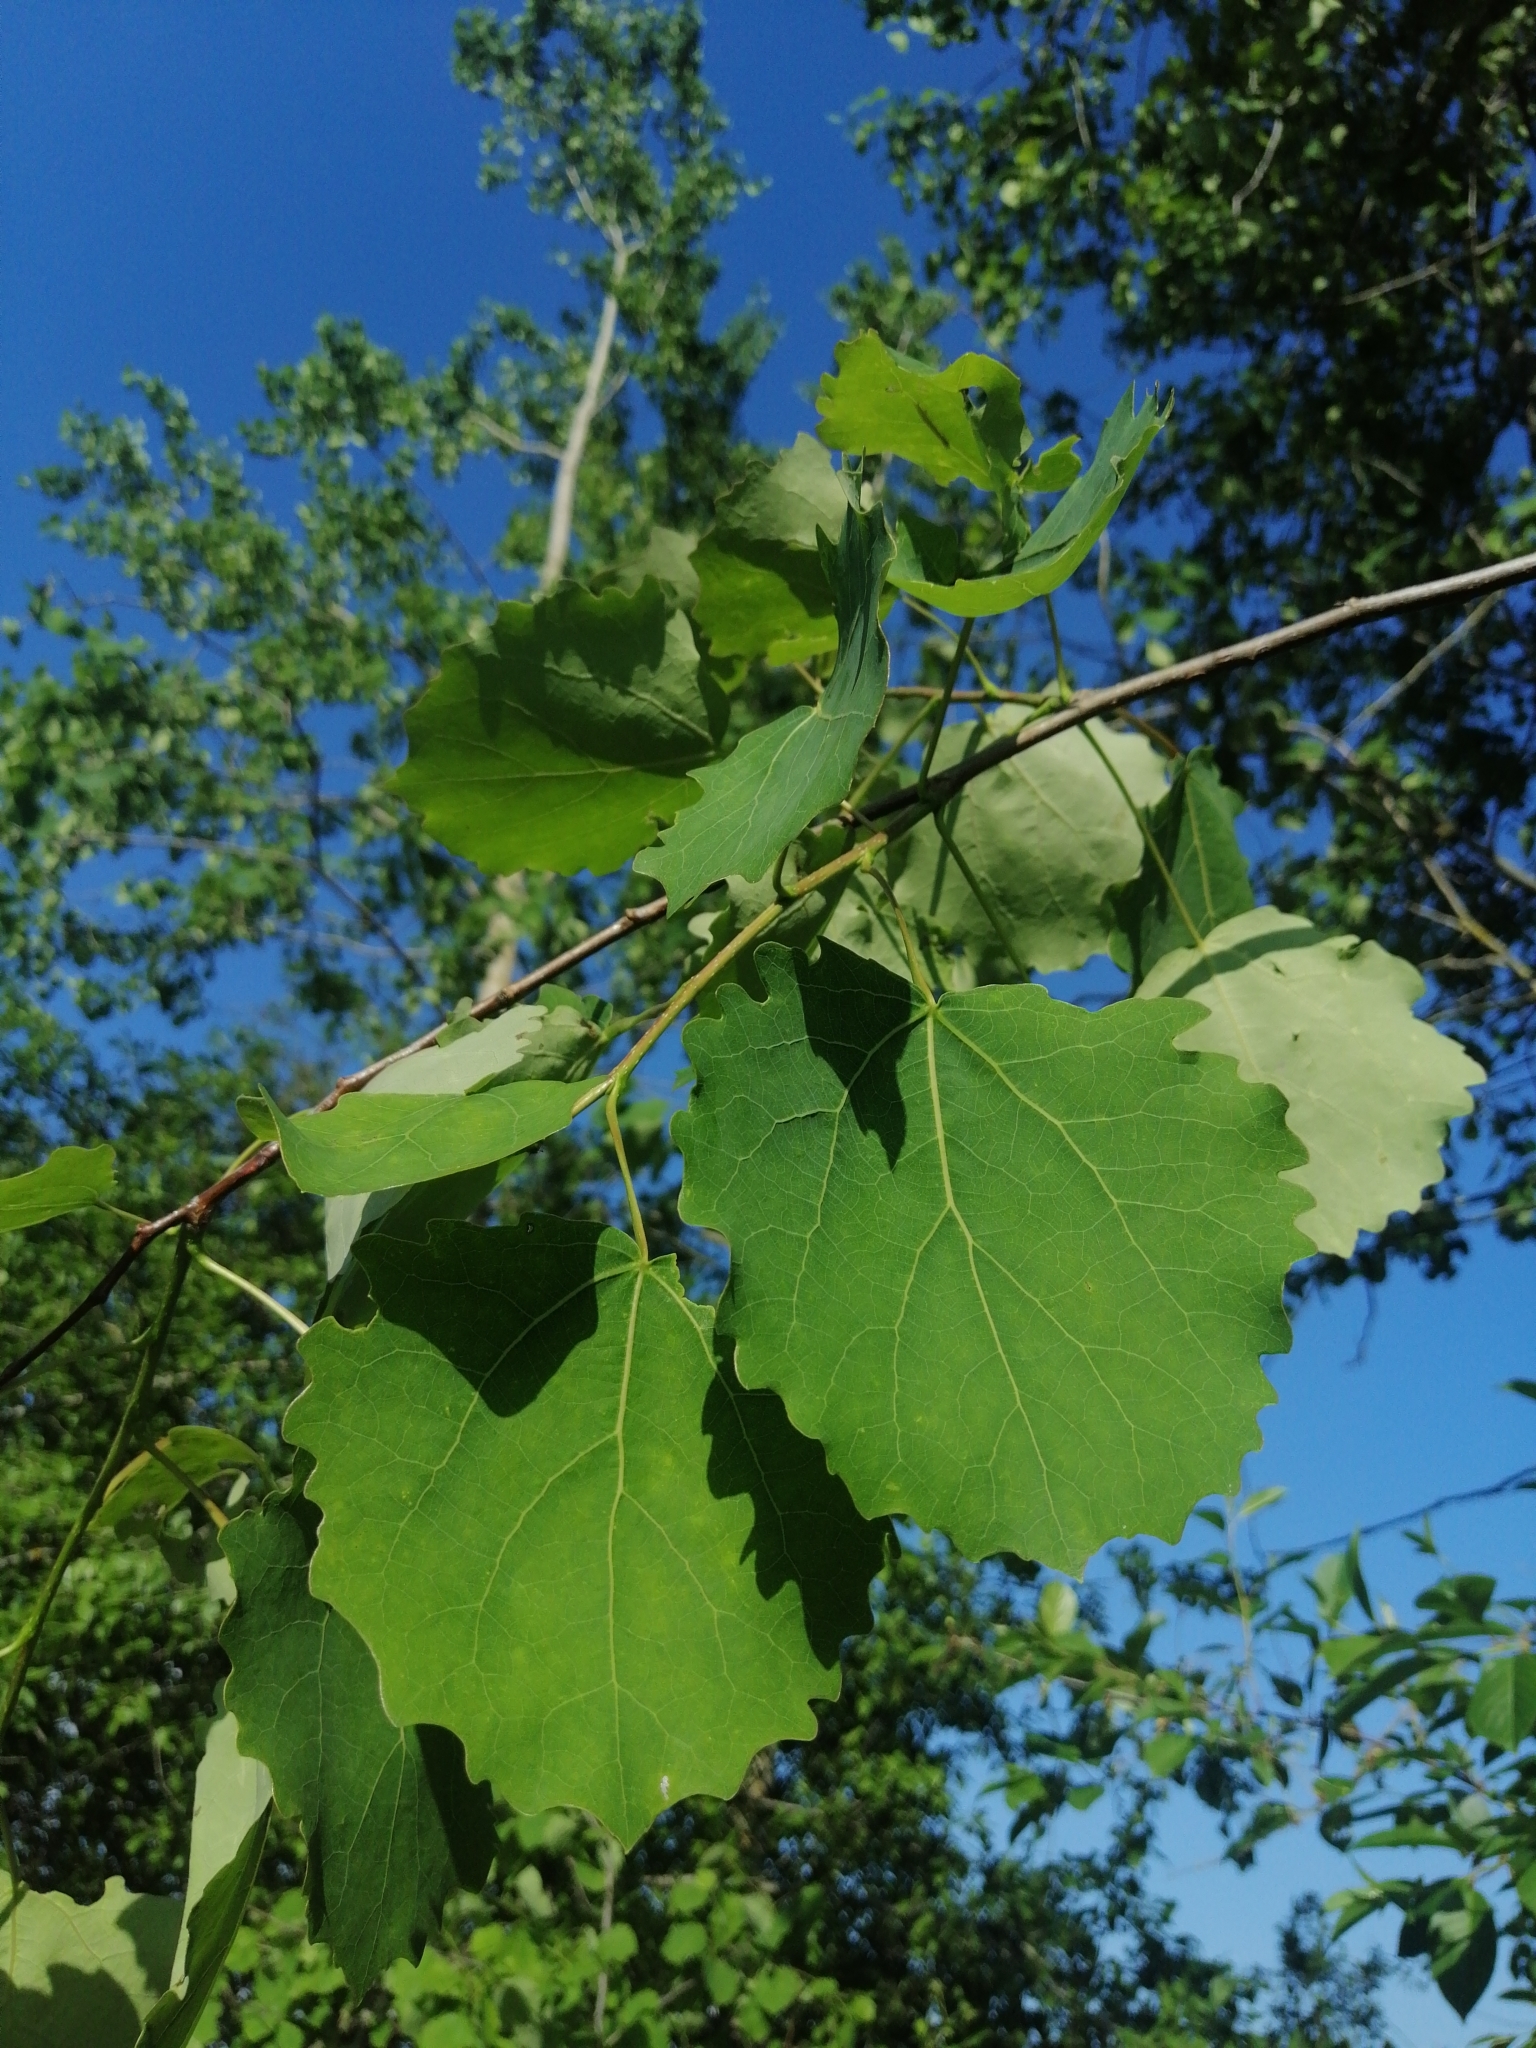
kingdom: Plantae
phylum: Tracheophyta
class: Magnoliopsida
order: Malpighiales
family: Salicaceae
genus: Populus
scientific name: Populus tremula
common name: European aspen
